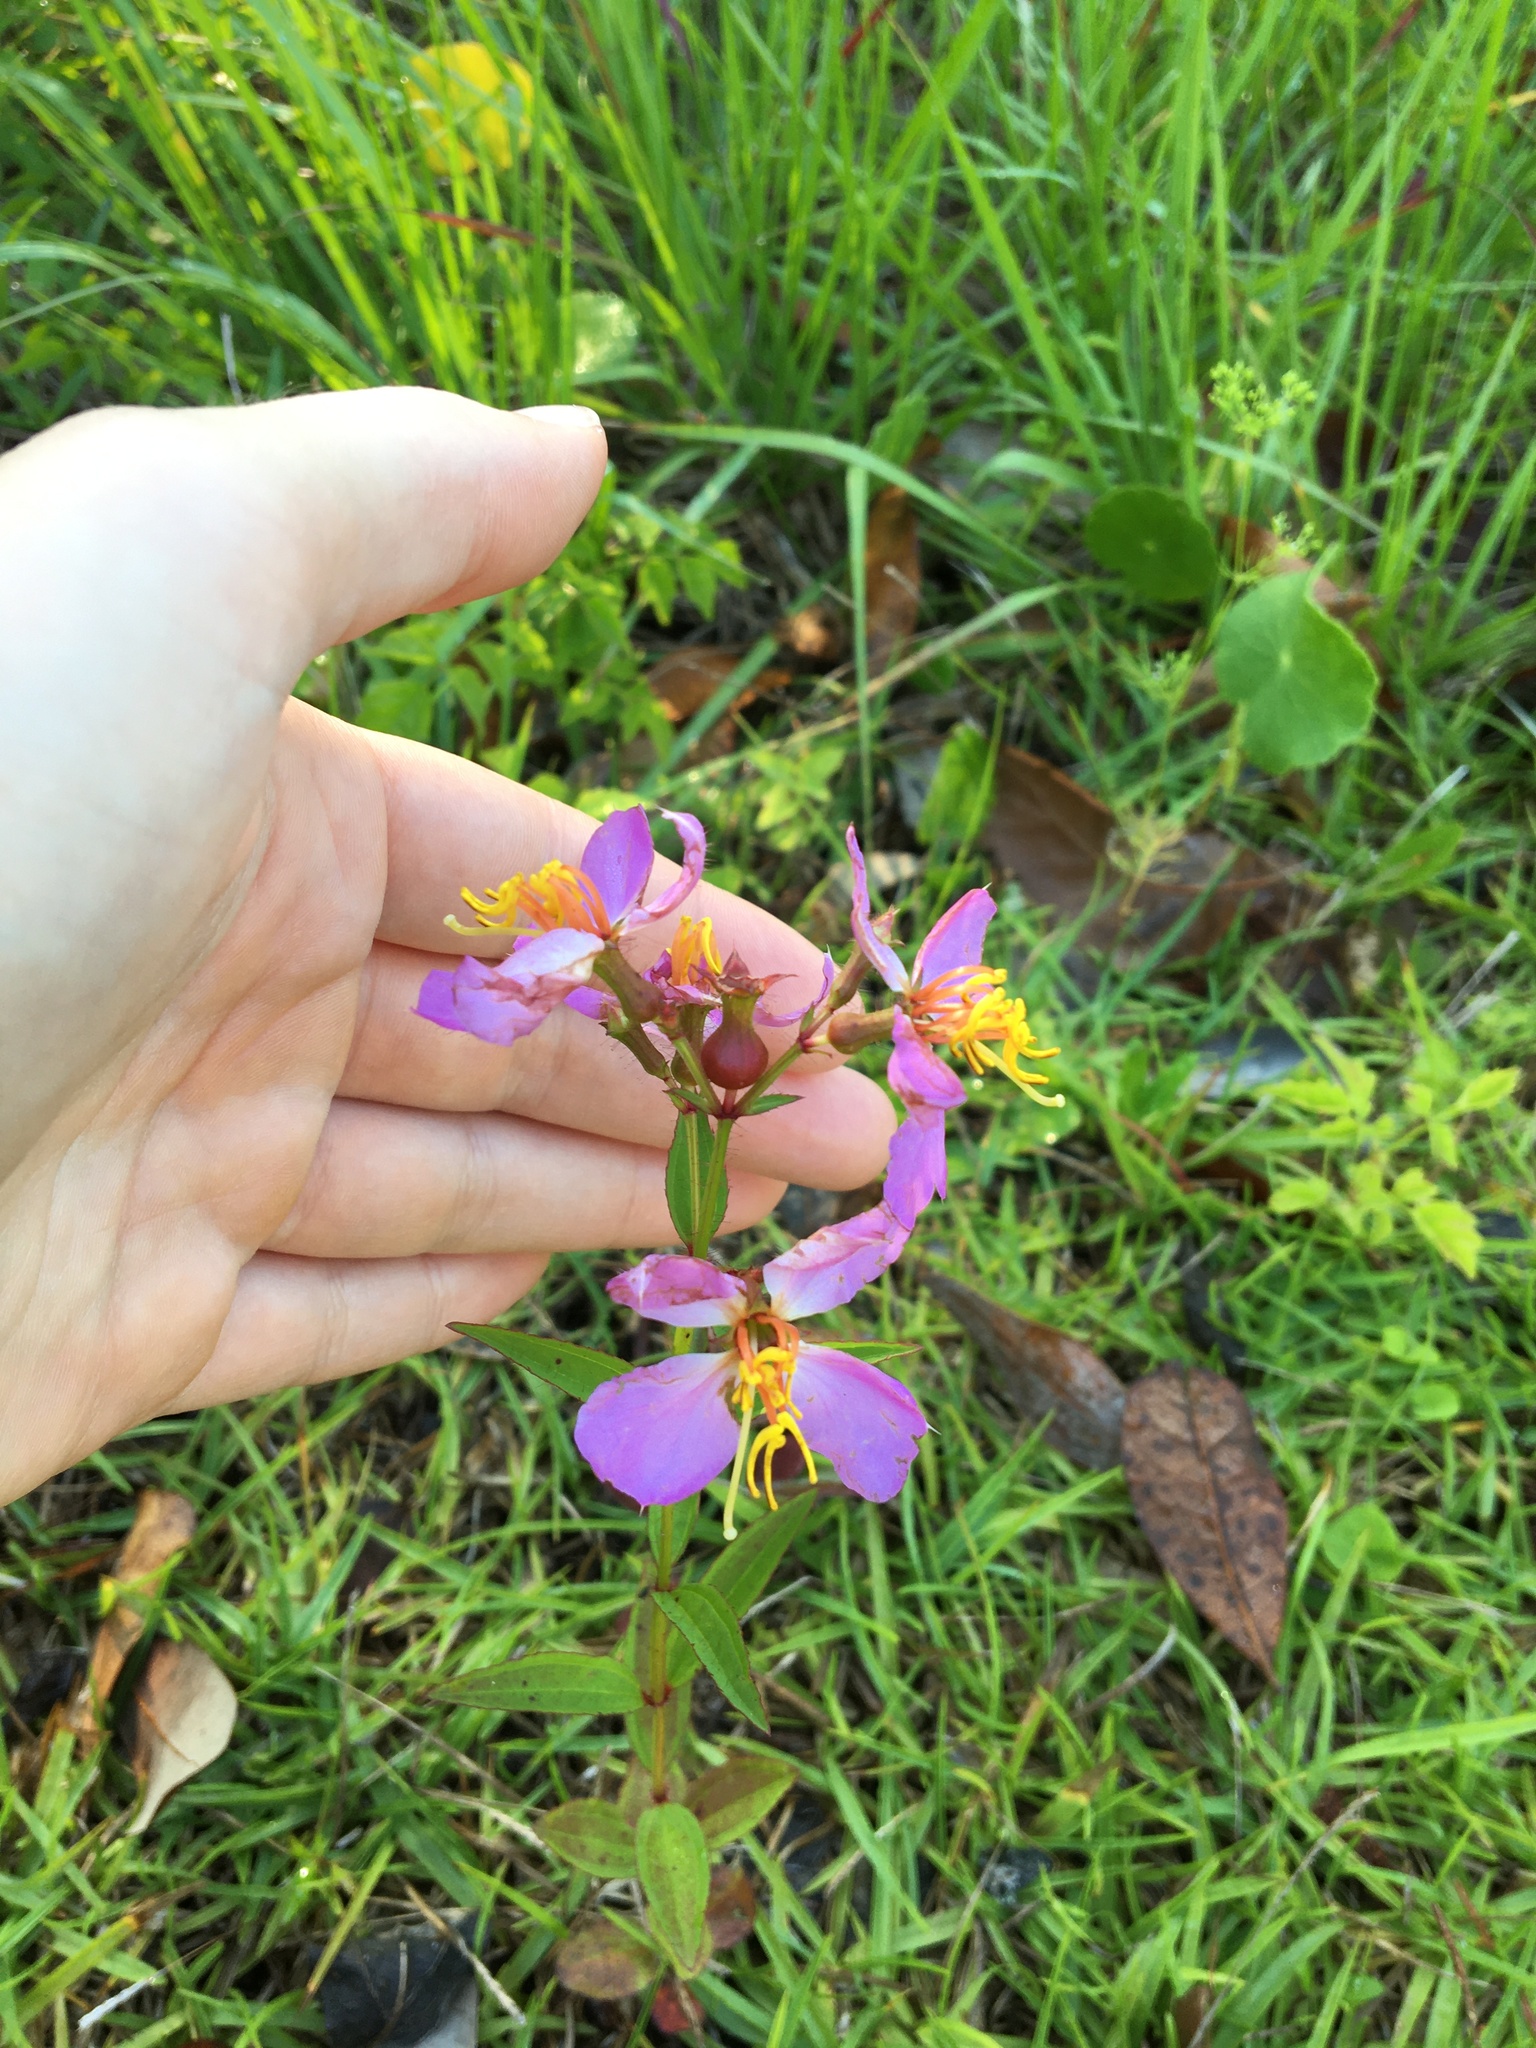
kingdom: Plantae
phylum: Tracheophyta
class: Magnoliopsida
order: Myrtales
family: Melastomataceae
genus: Rhexia
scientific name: Rhexia virginica
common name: Common meadow beauty
